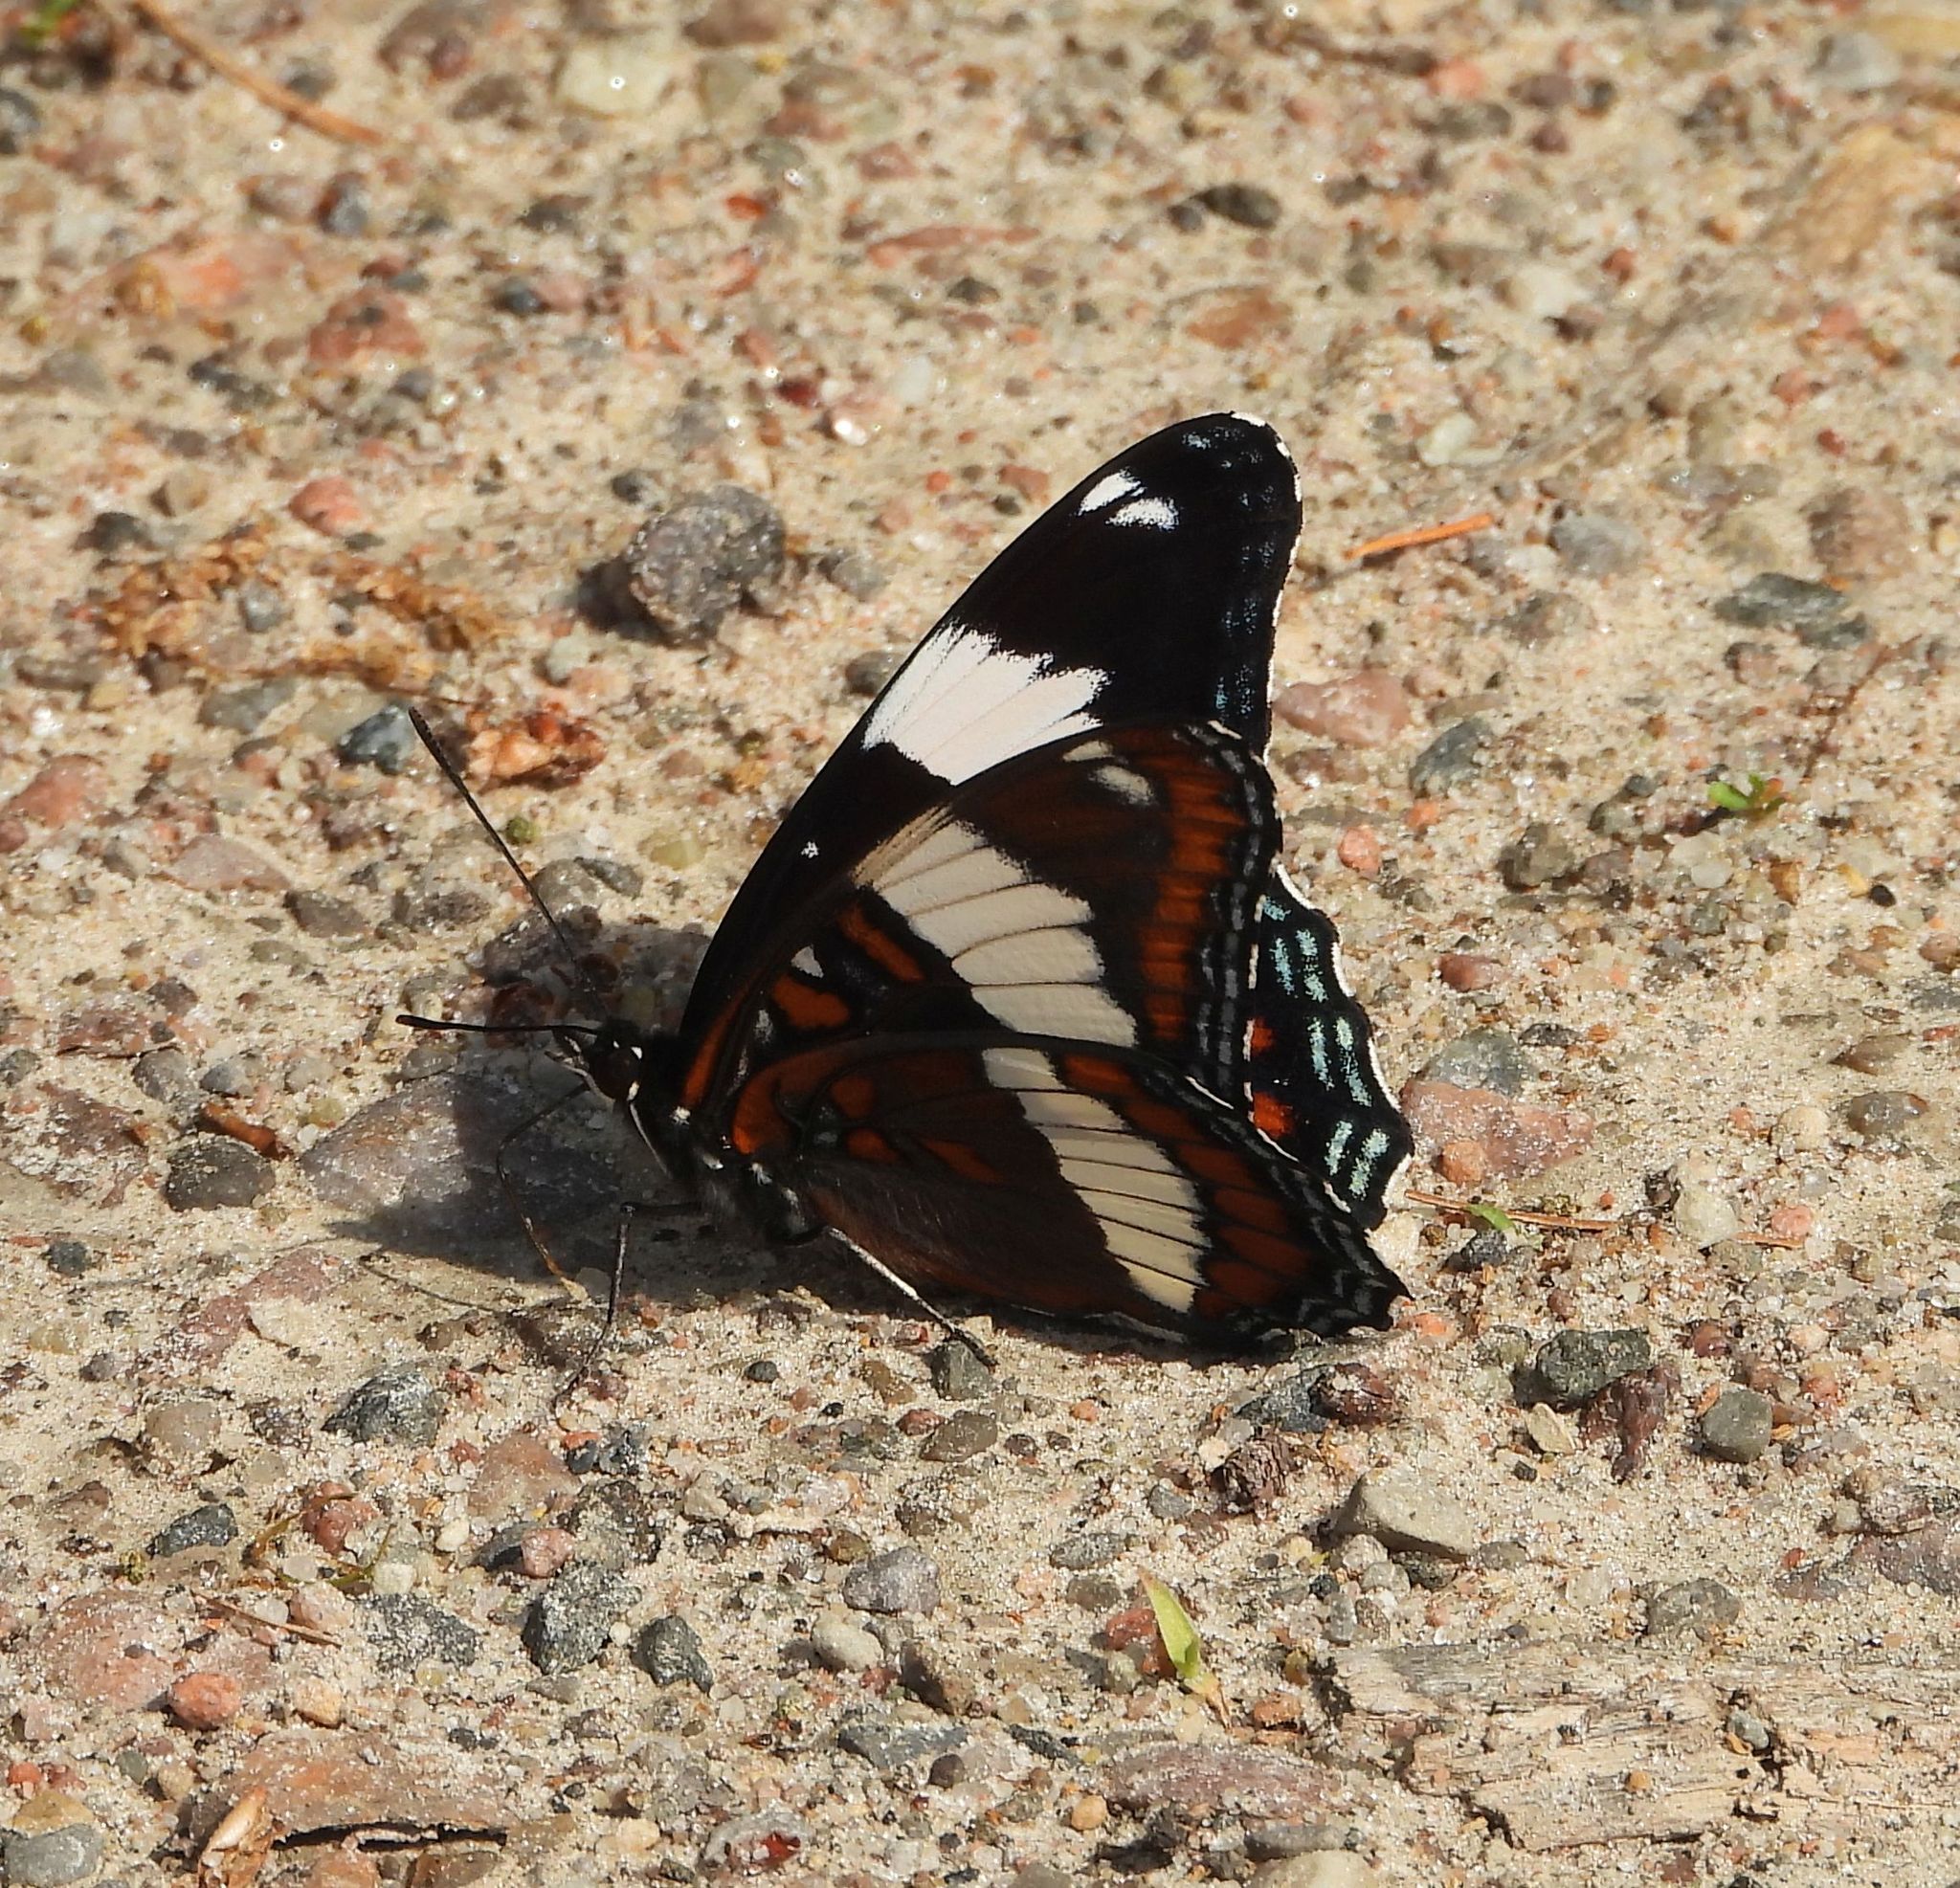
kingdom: Animalia
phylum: Arthropoda
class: Insecta
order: Lepidoptera
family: Nymphalidae
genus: Limenitis
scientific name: Limenitis arthemis
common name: Red-spotted admiral
